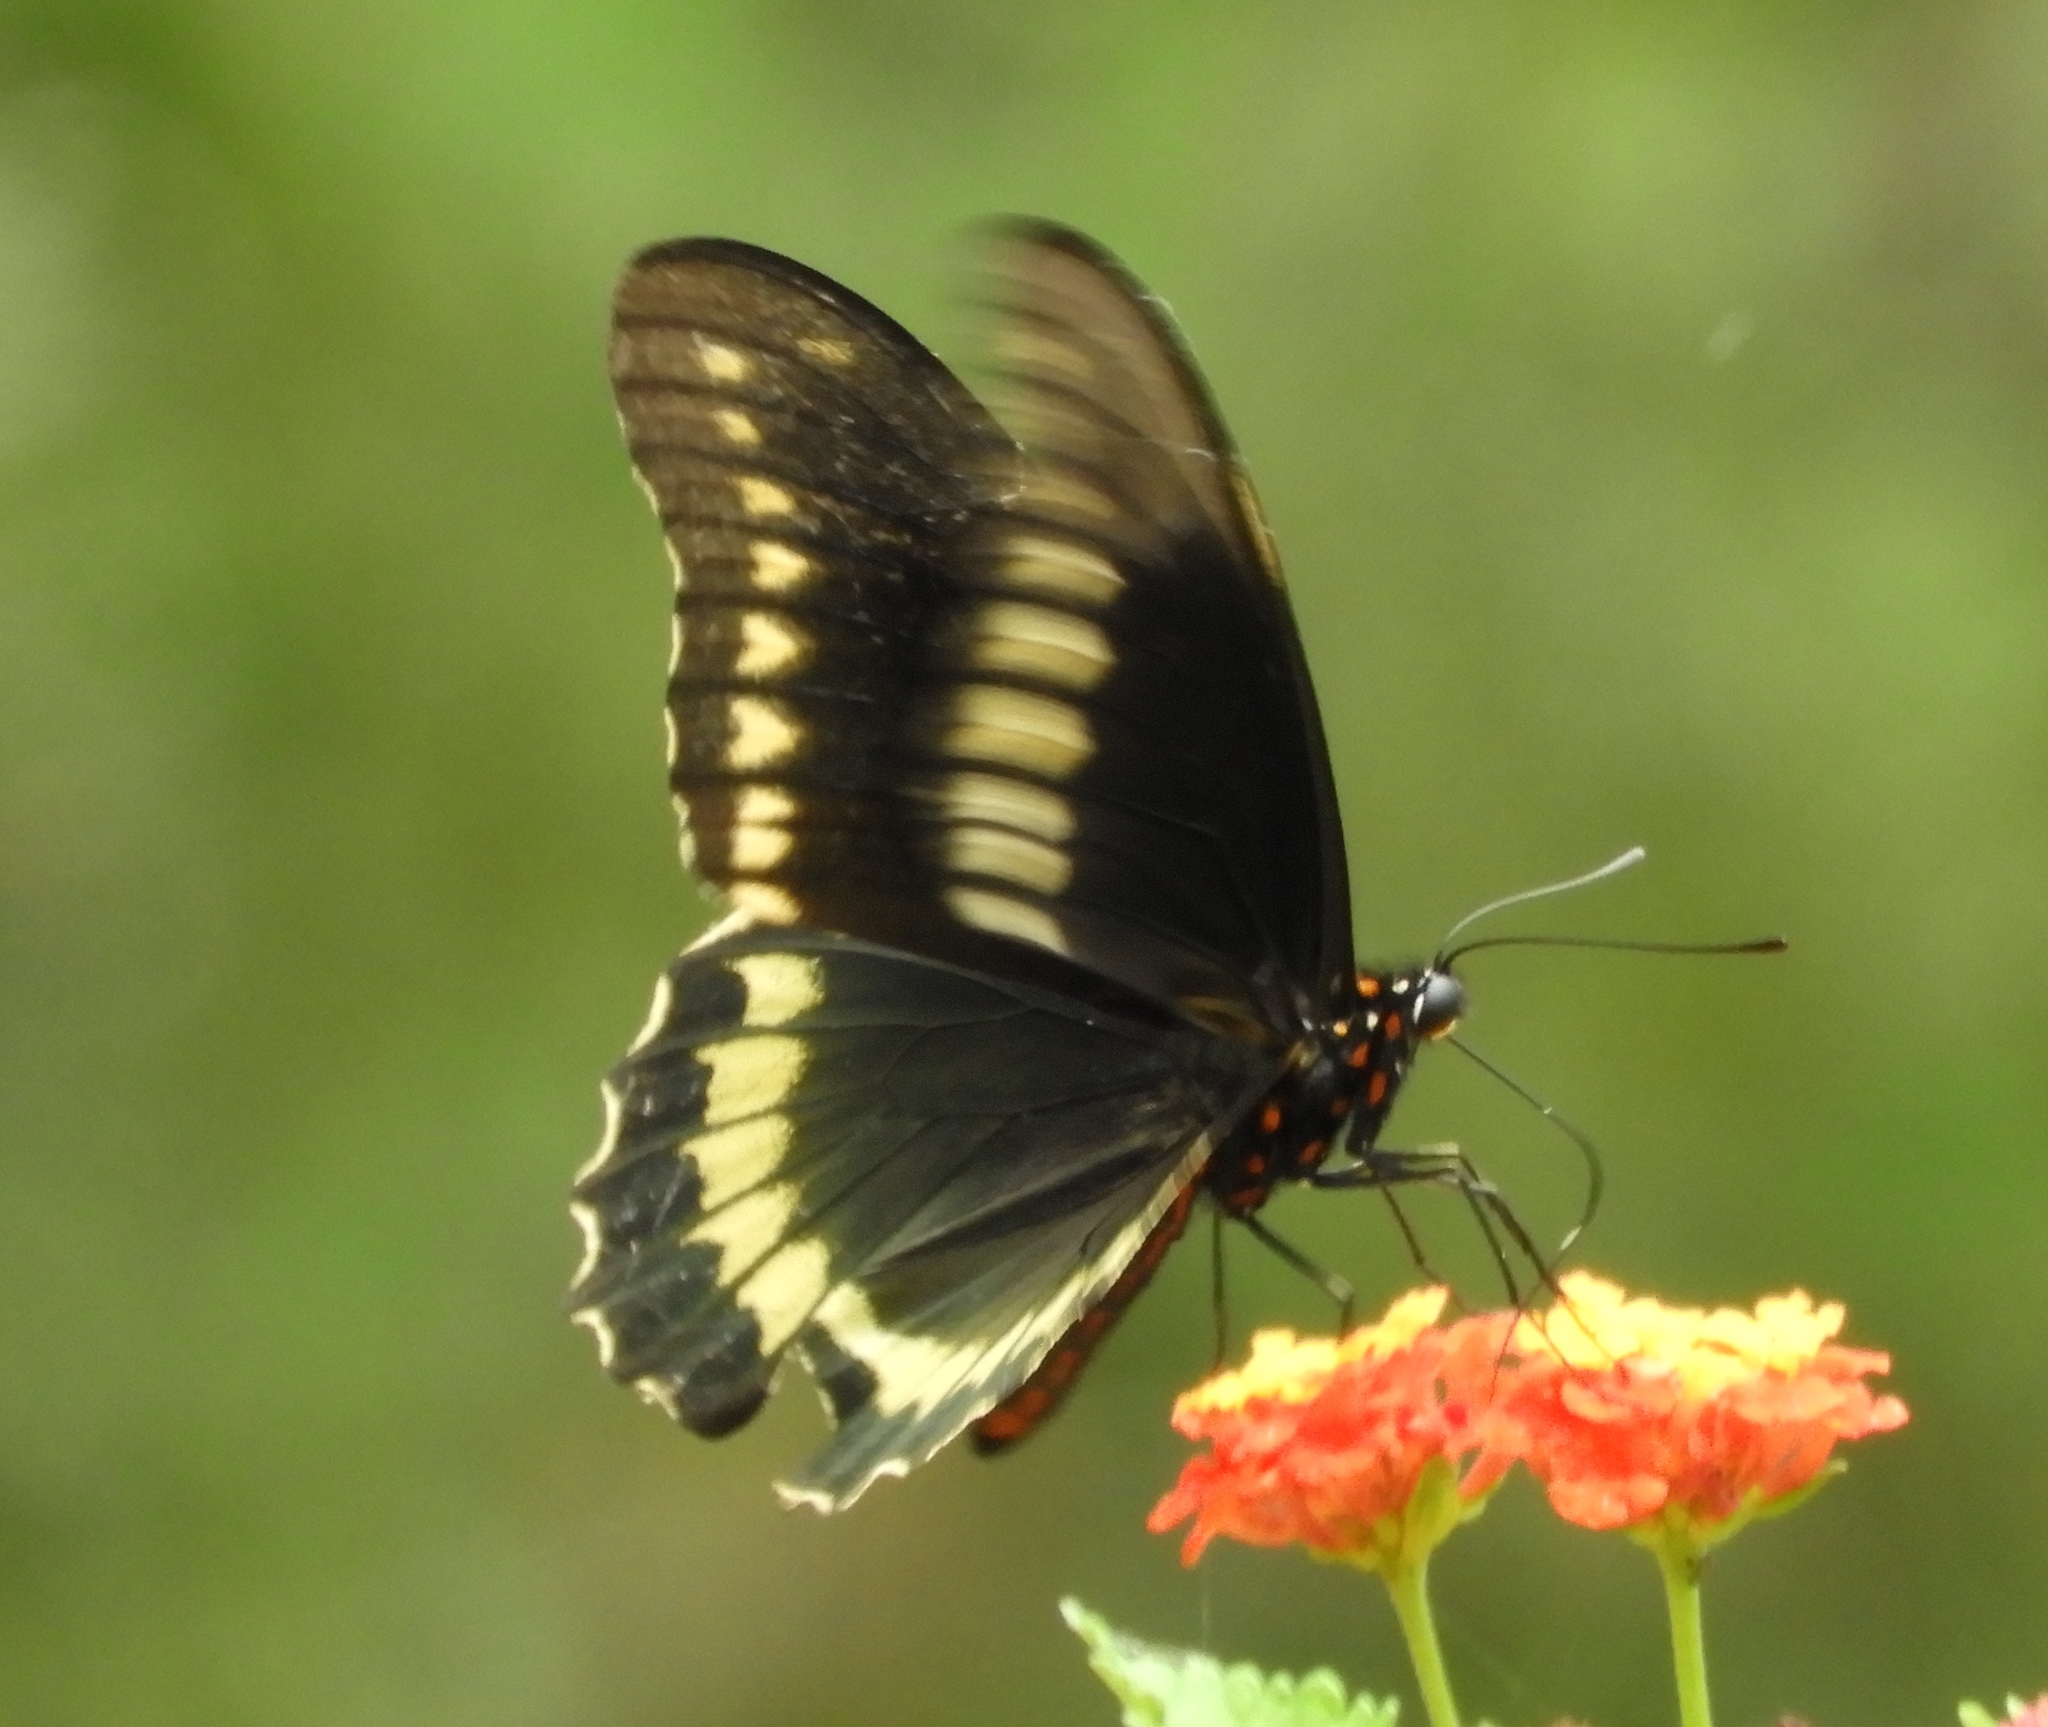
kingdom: Animalia
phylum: Arthropoda
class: Insecta
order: Lepidoptera
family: Papilionidae
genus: Battus
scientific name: Battus polydamas
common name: Polydamas swallowtail
